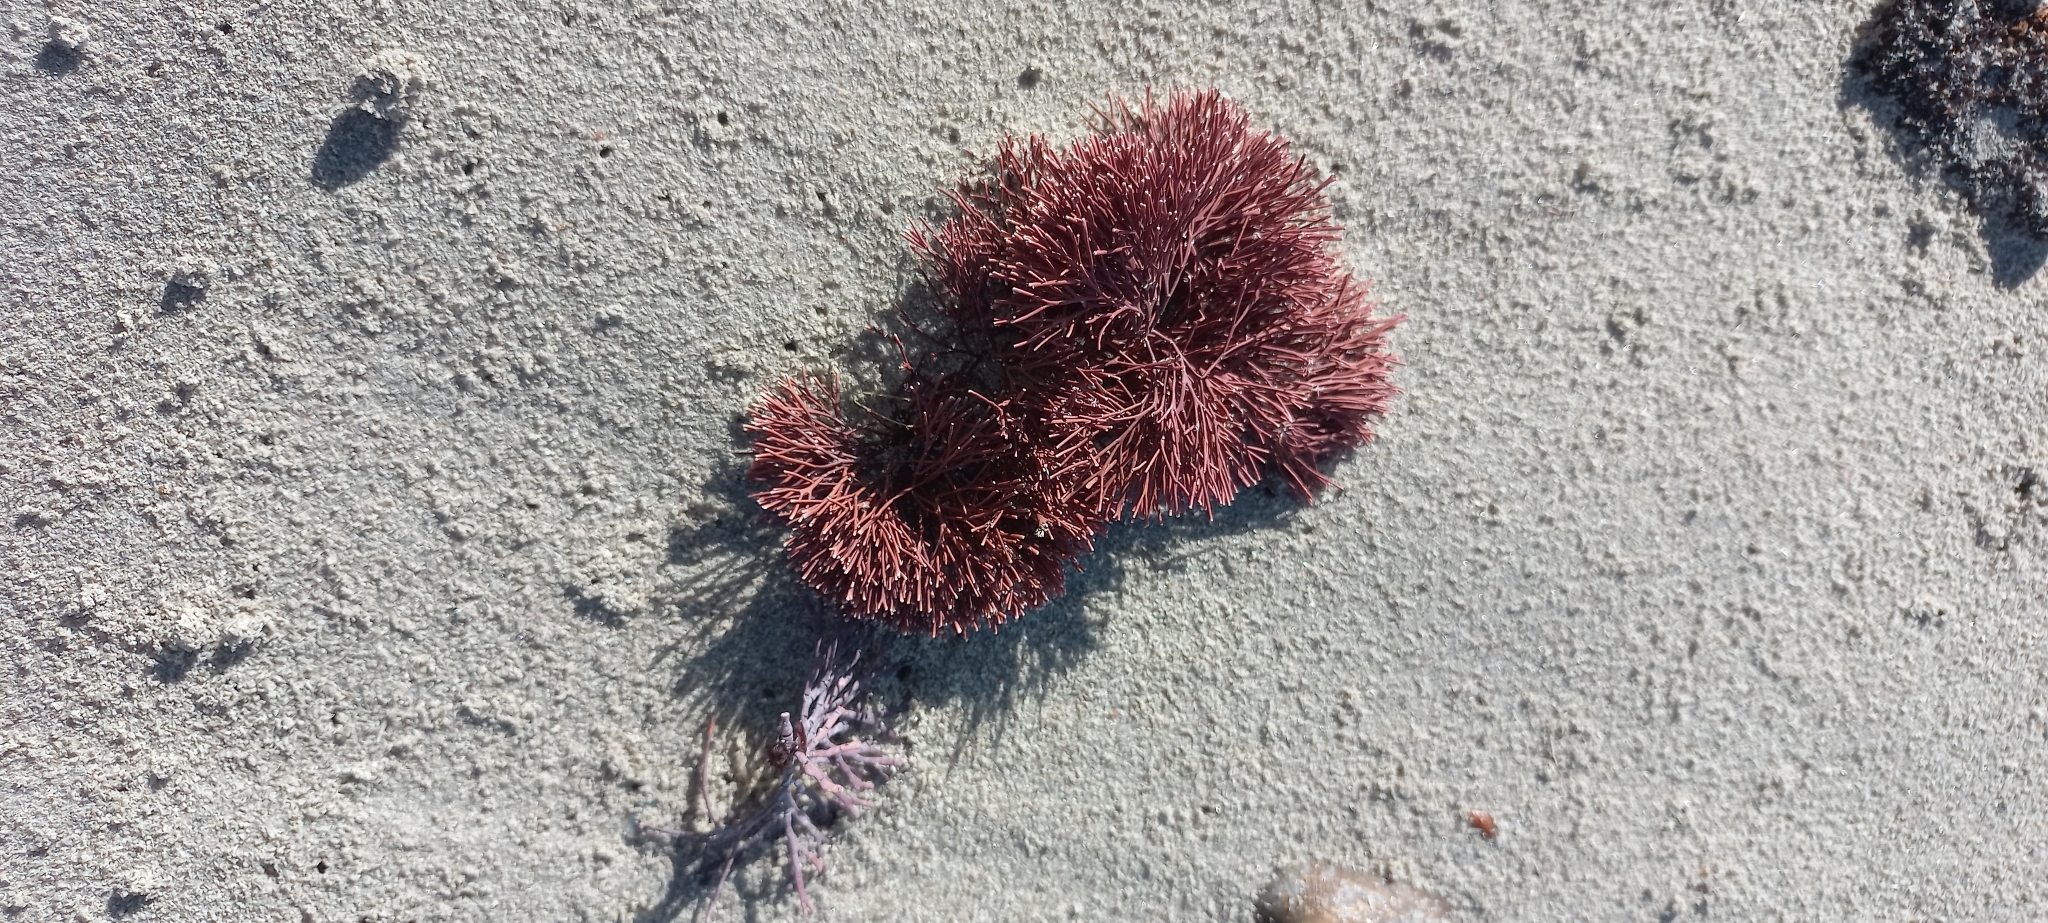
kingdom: Plantae
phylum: Rhodophyta
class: Florideophyceae
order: Corallinales
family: Corallinaceae
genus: Jania
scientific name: Jania
